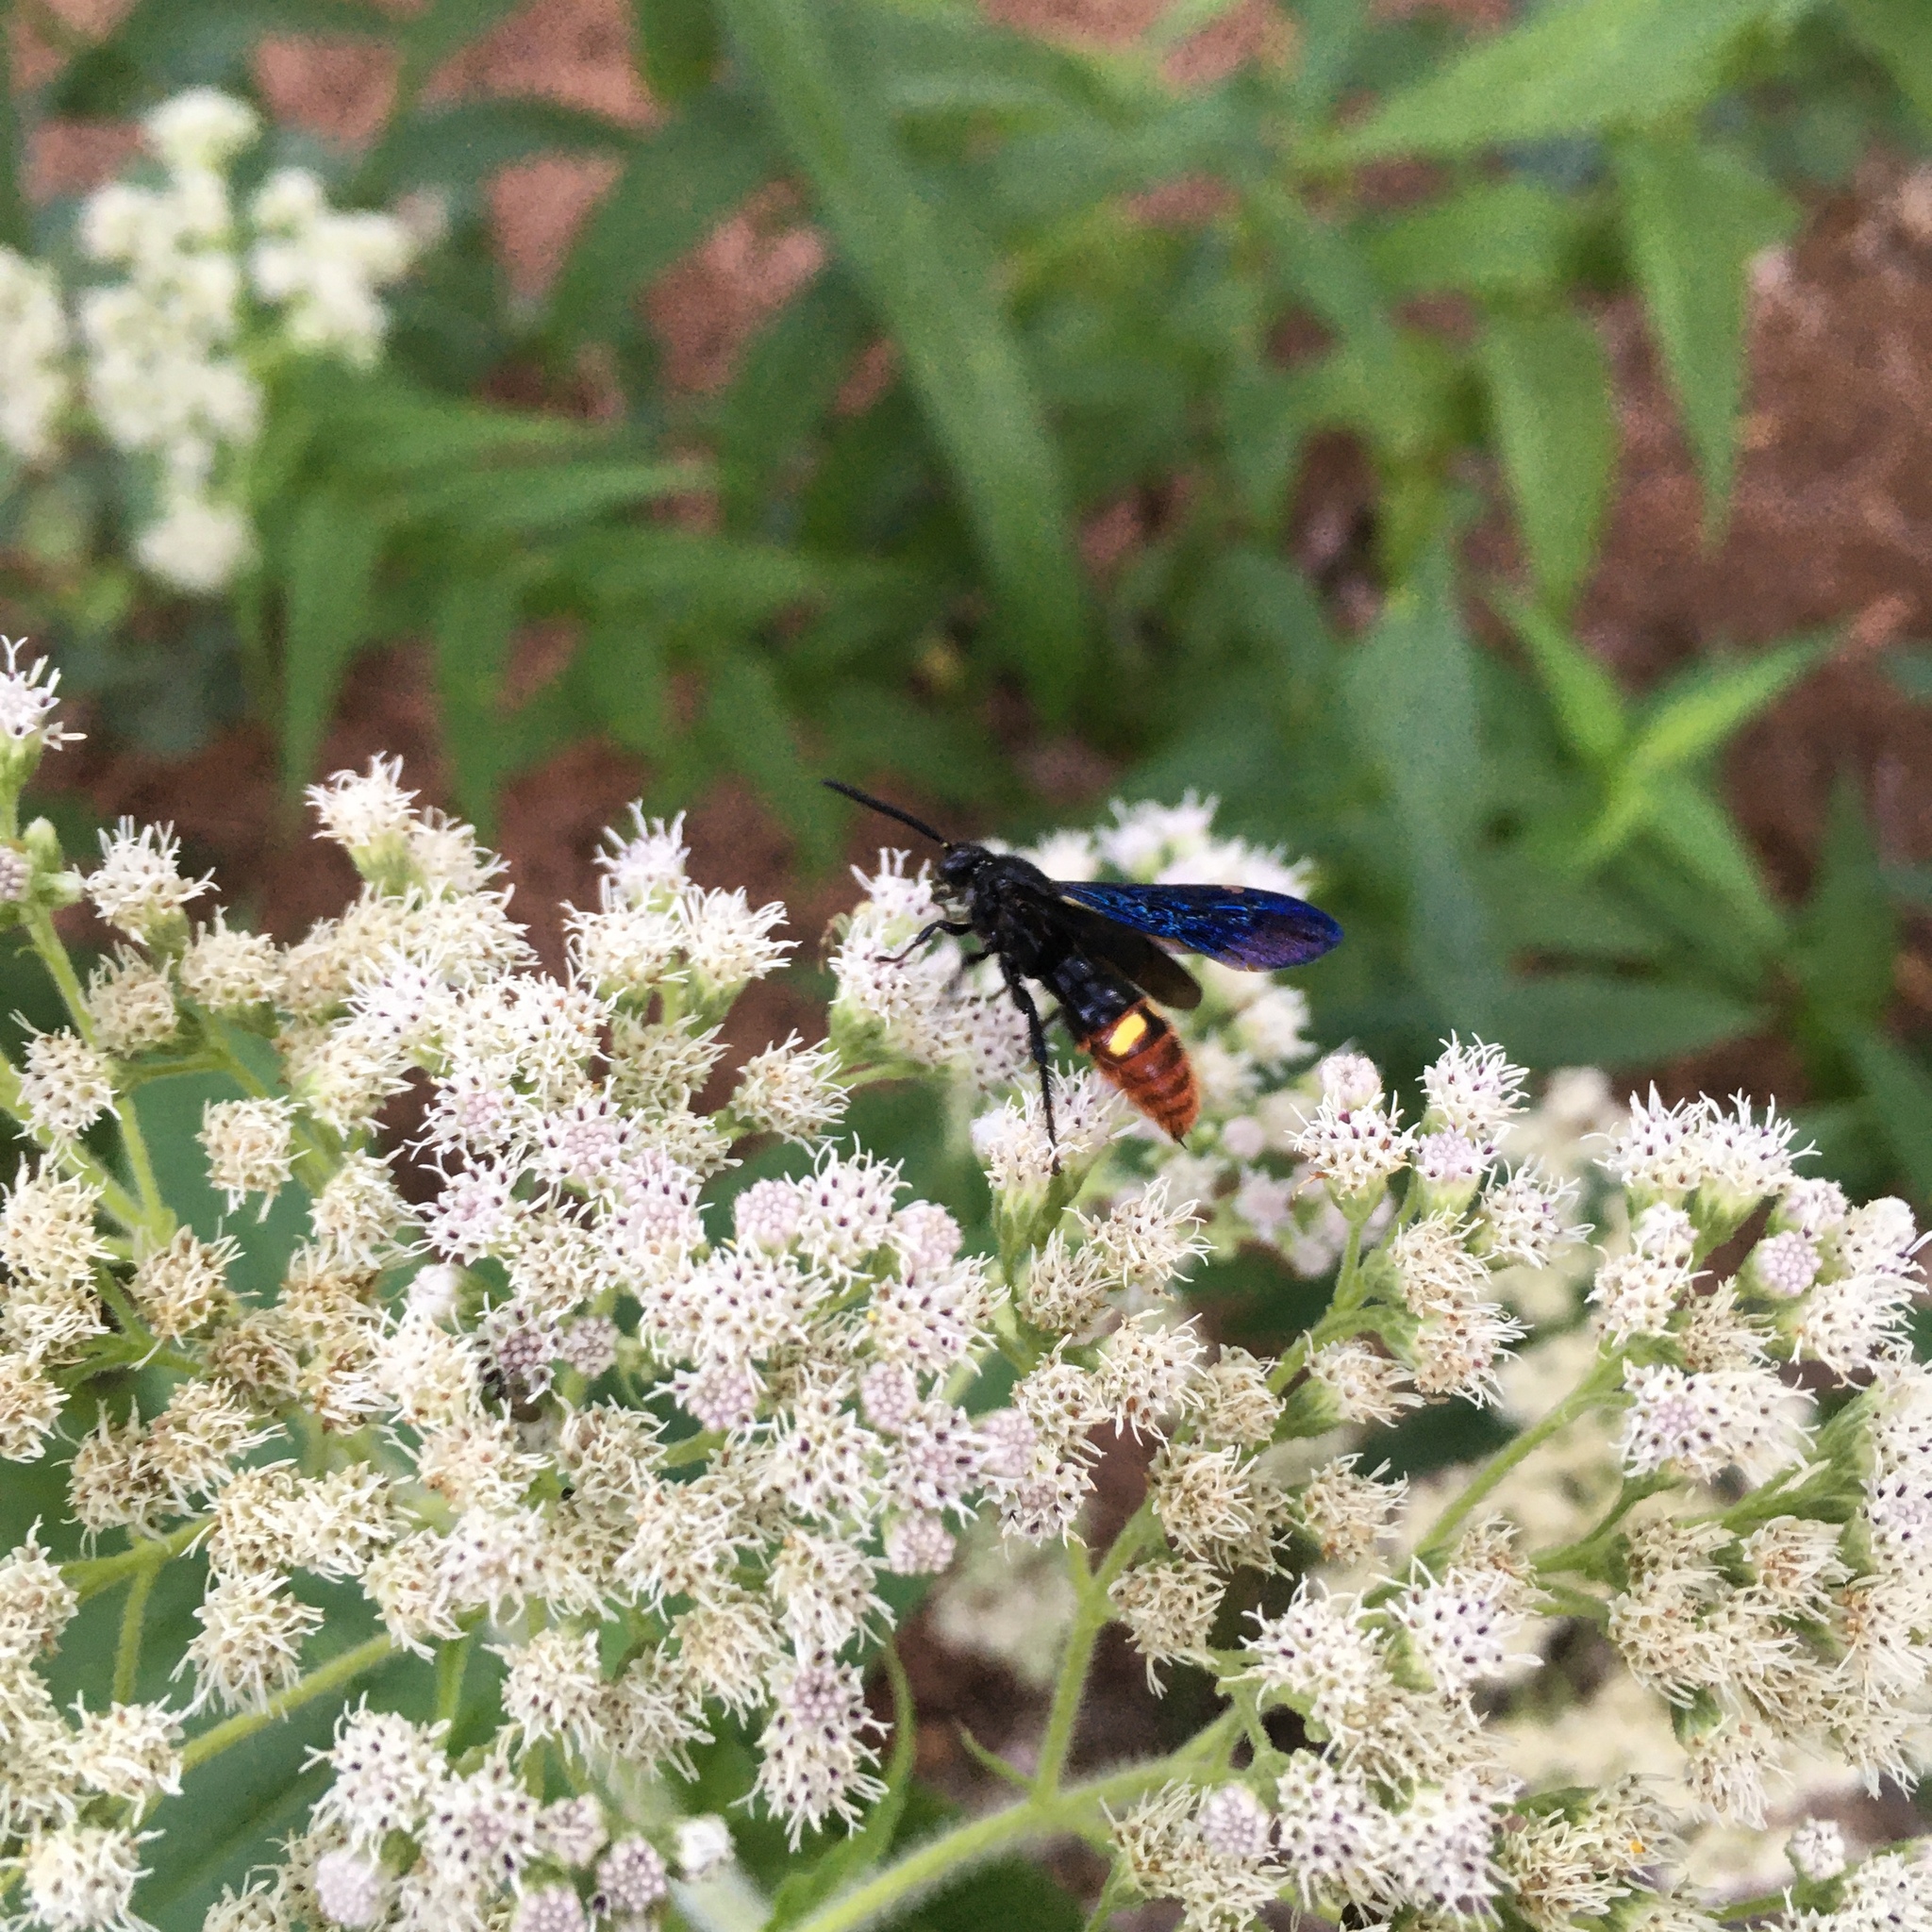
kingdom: Animalia
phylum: Arthropoda
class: Insecta
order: Hymenoptera
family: Scoliidae
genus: Scolia
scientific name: Scolia dubia
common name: Blue-winged scoliid wasp
